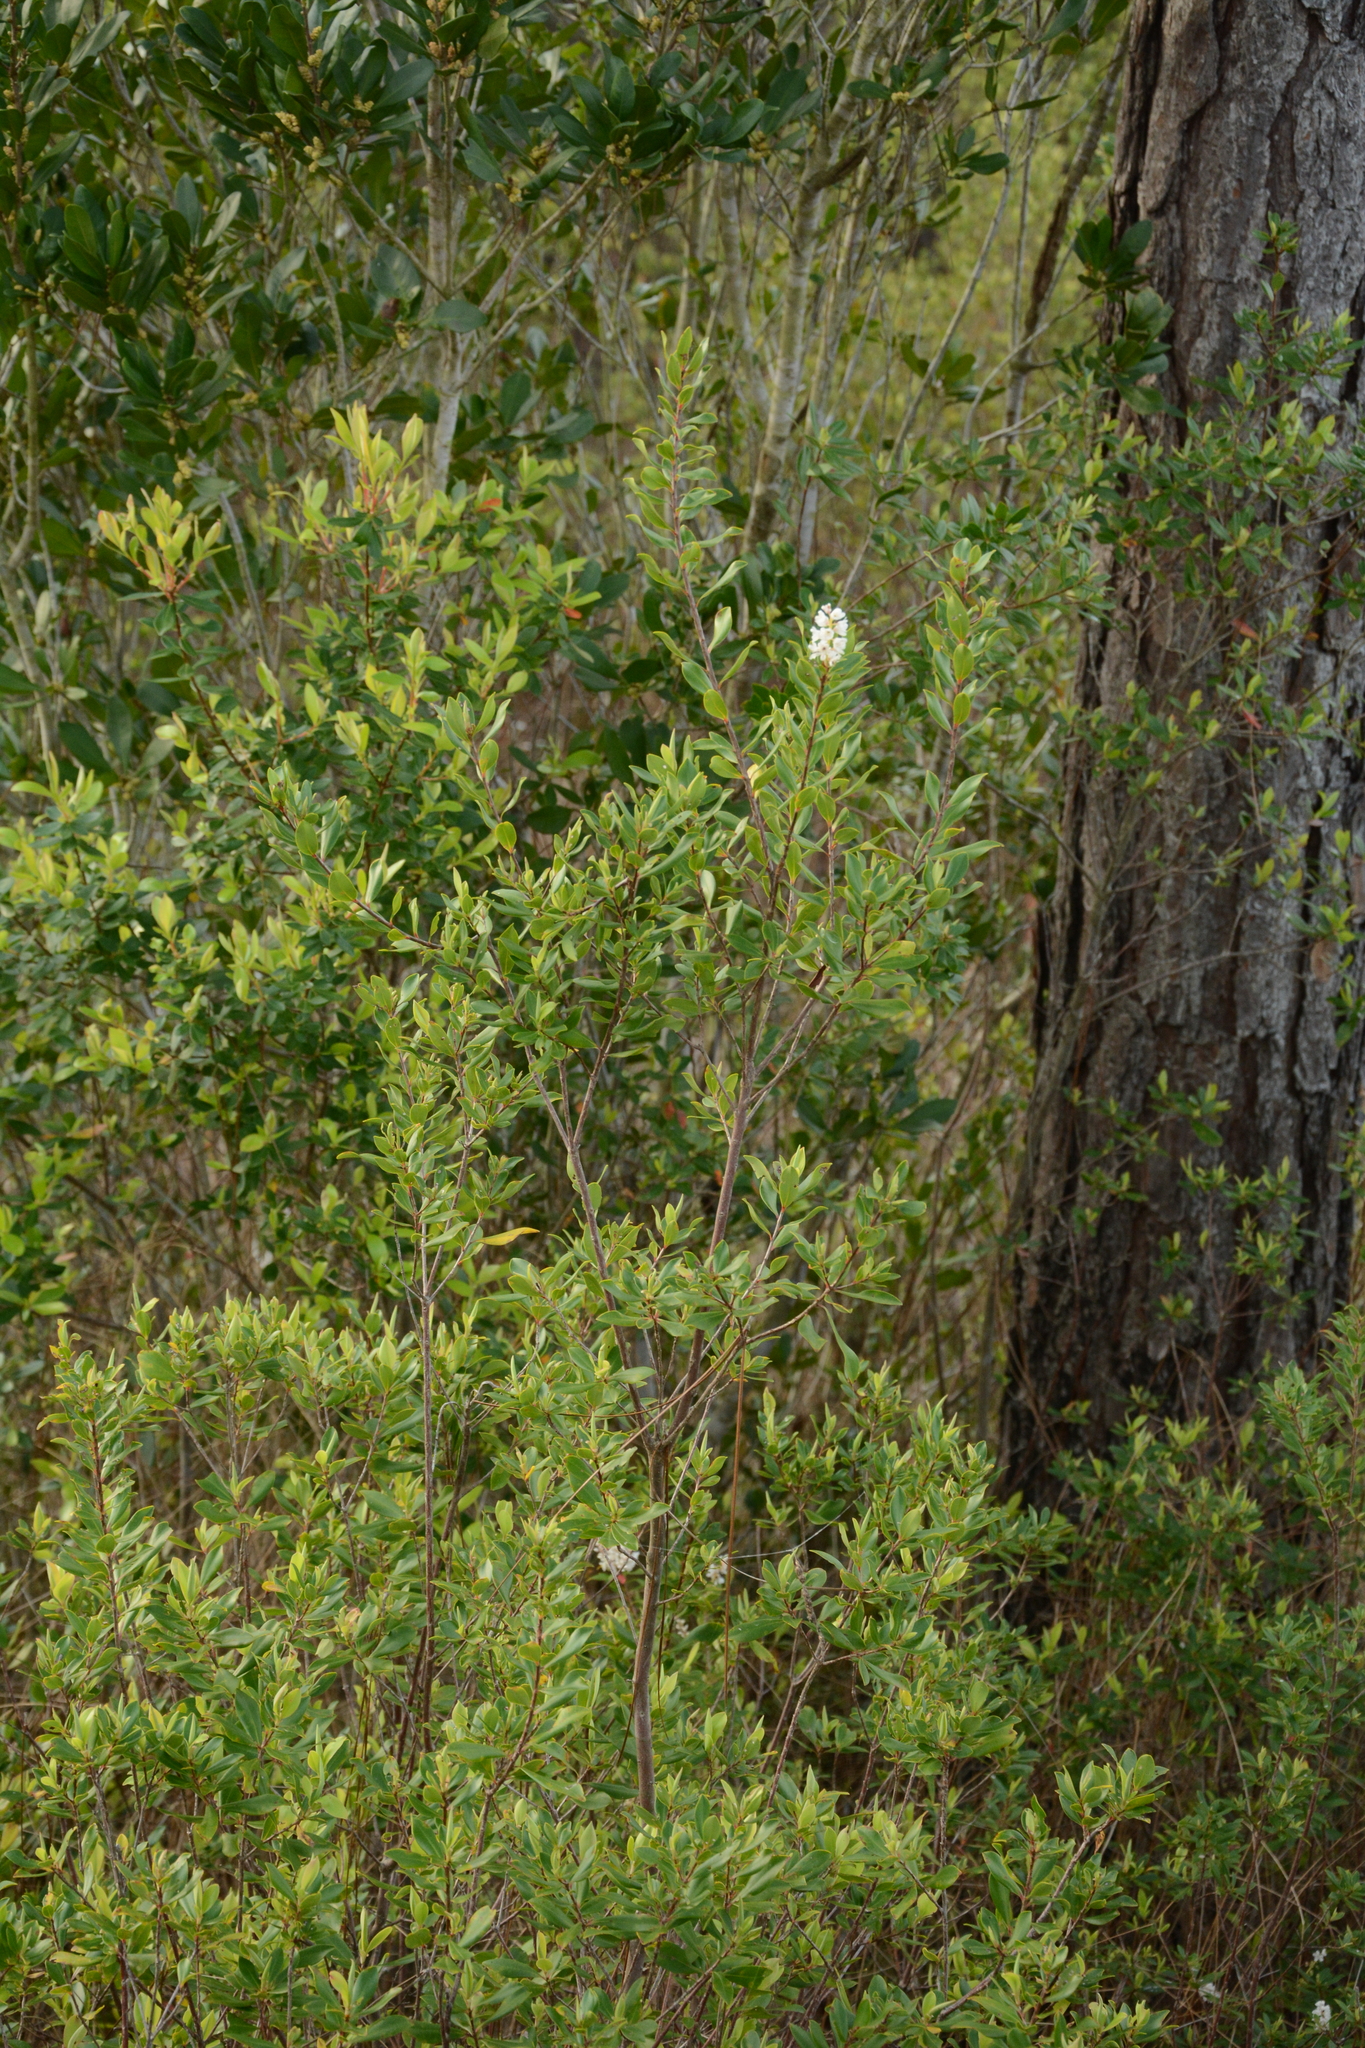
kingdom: Plantae
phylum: Tracheophyta
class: Magnoliopsida
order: Ericales
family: Cyrillaceae
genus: Cliftonia
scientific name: Cliftonia monophylla
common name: Titi
